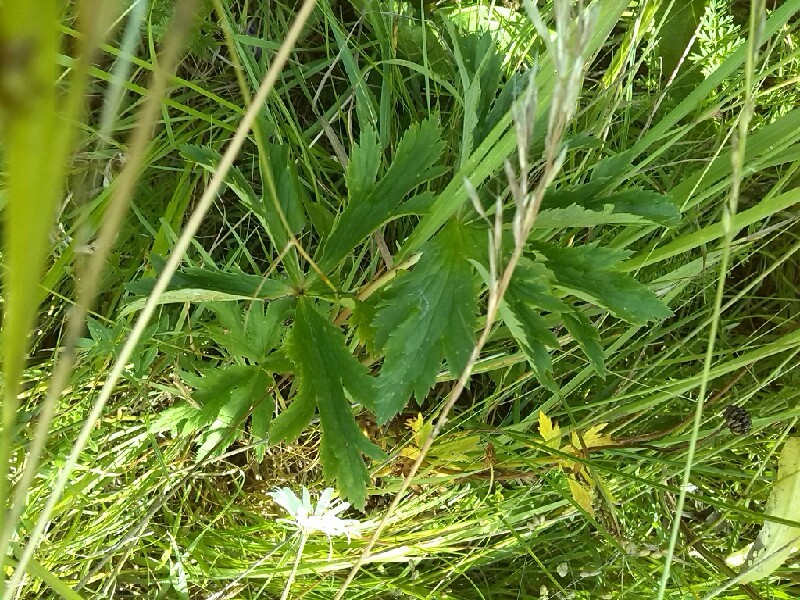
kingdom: Plantae
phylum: Tracheophyta
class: Magnoliopsida
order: Ranunculales
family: Ranunculaceae
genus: Trollius
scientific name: Trollius europaeus
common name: European globeflower
